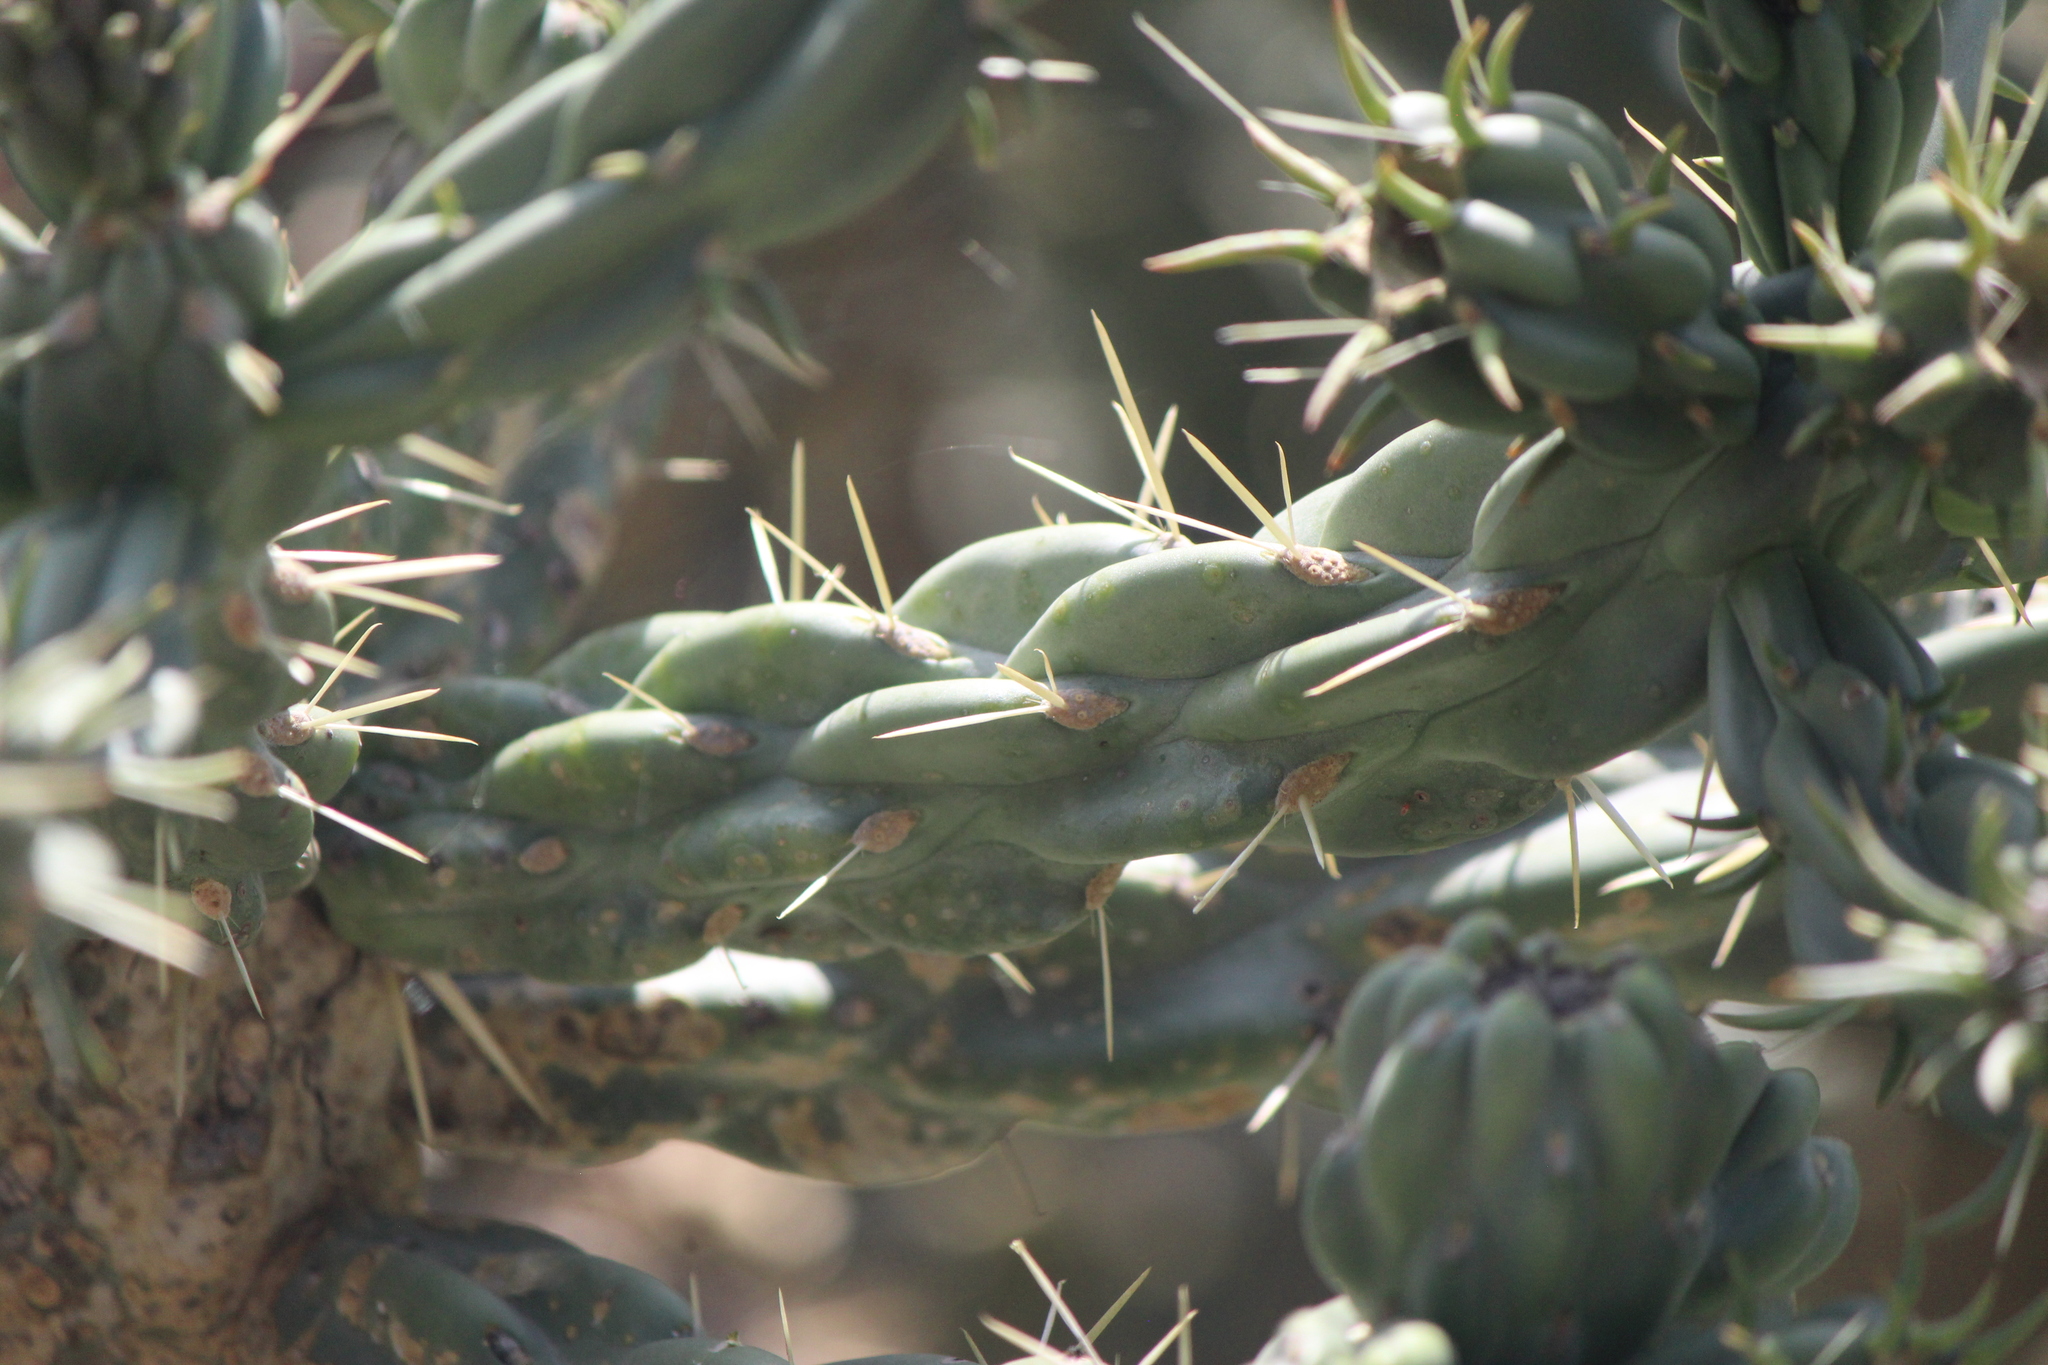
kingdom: Plantae
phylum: Tracheophyta
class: Magnoliopsida
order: Caryophyllales
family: Cactaceae
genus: Cylindropuntia
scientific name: Cylindropuntia imbricata
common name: Candelabrum cactus
